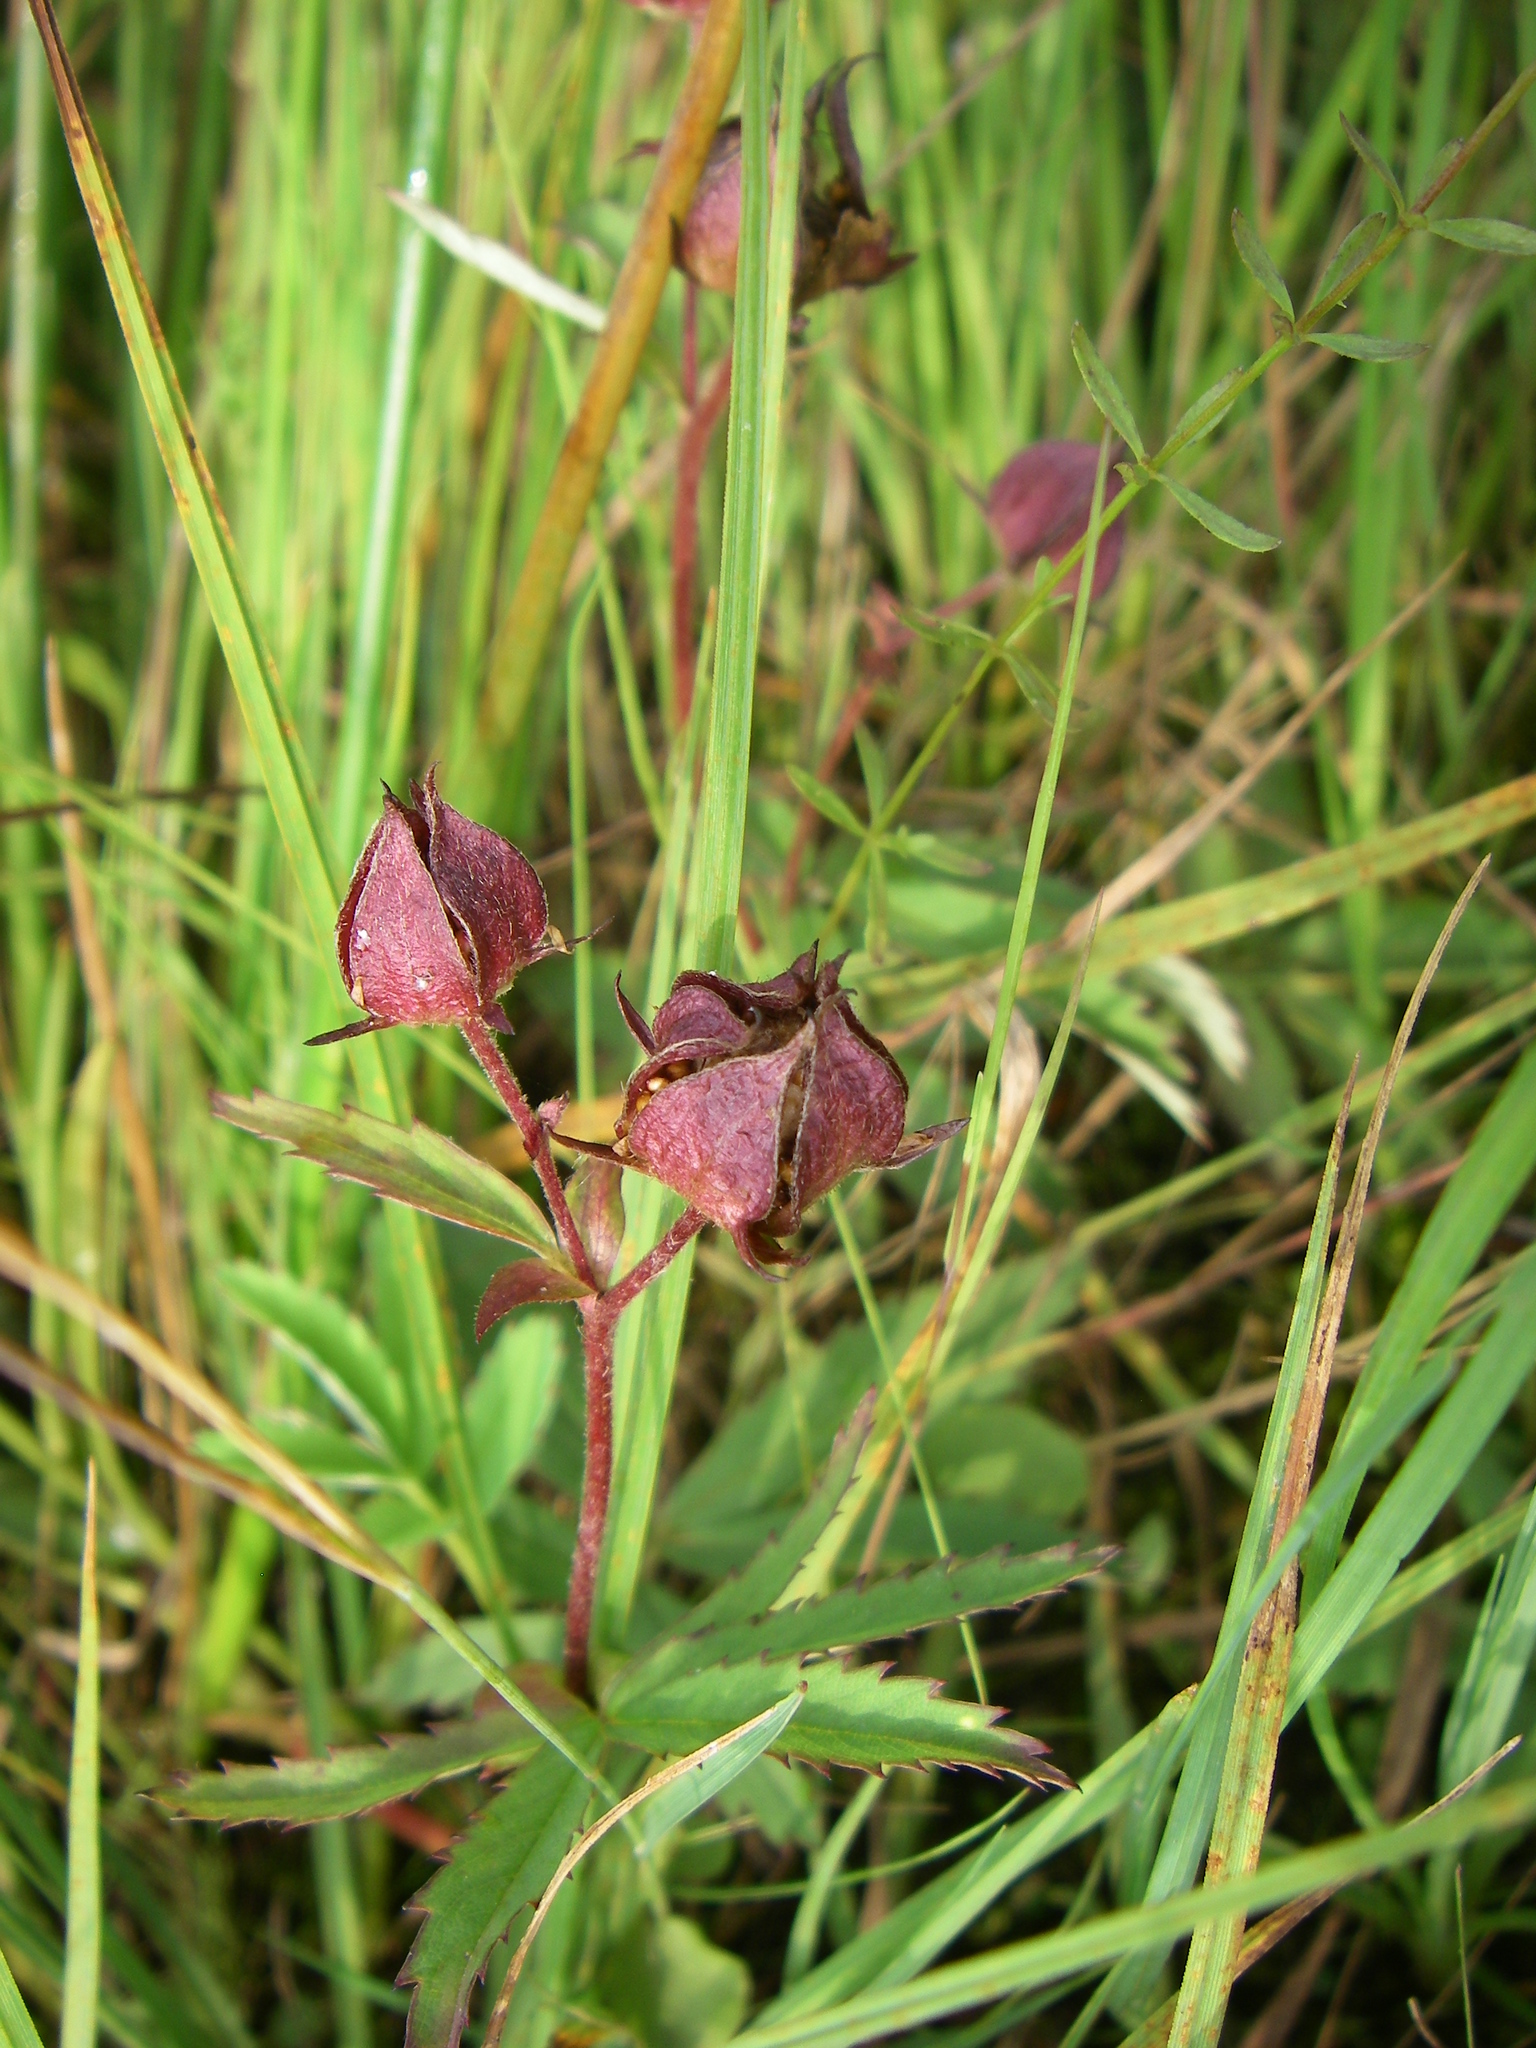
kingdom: Plantae
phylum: Tracheophyta
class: Magnoliopsida
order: Rosales
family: Rosaceae
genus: Comarum
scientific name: Comarum palustre
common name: Marsh cinquefoil
